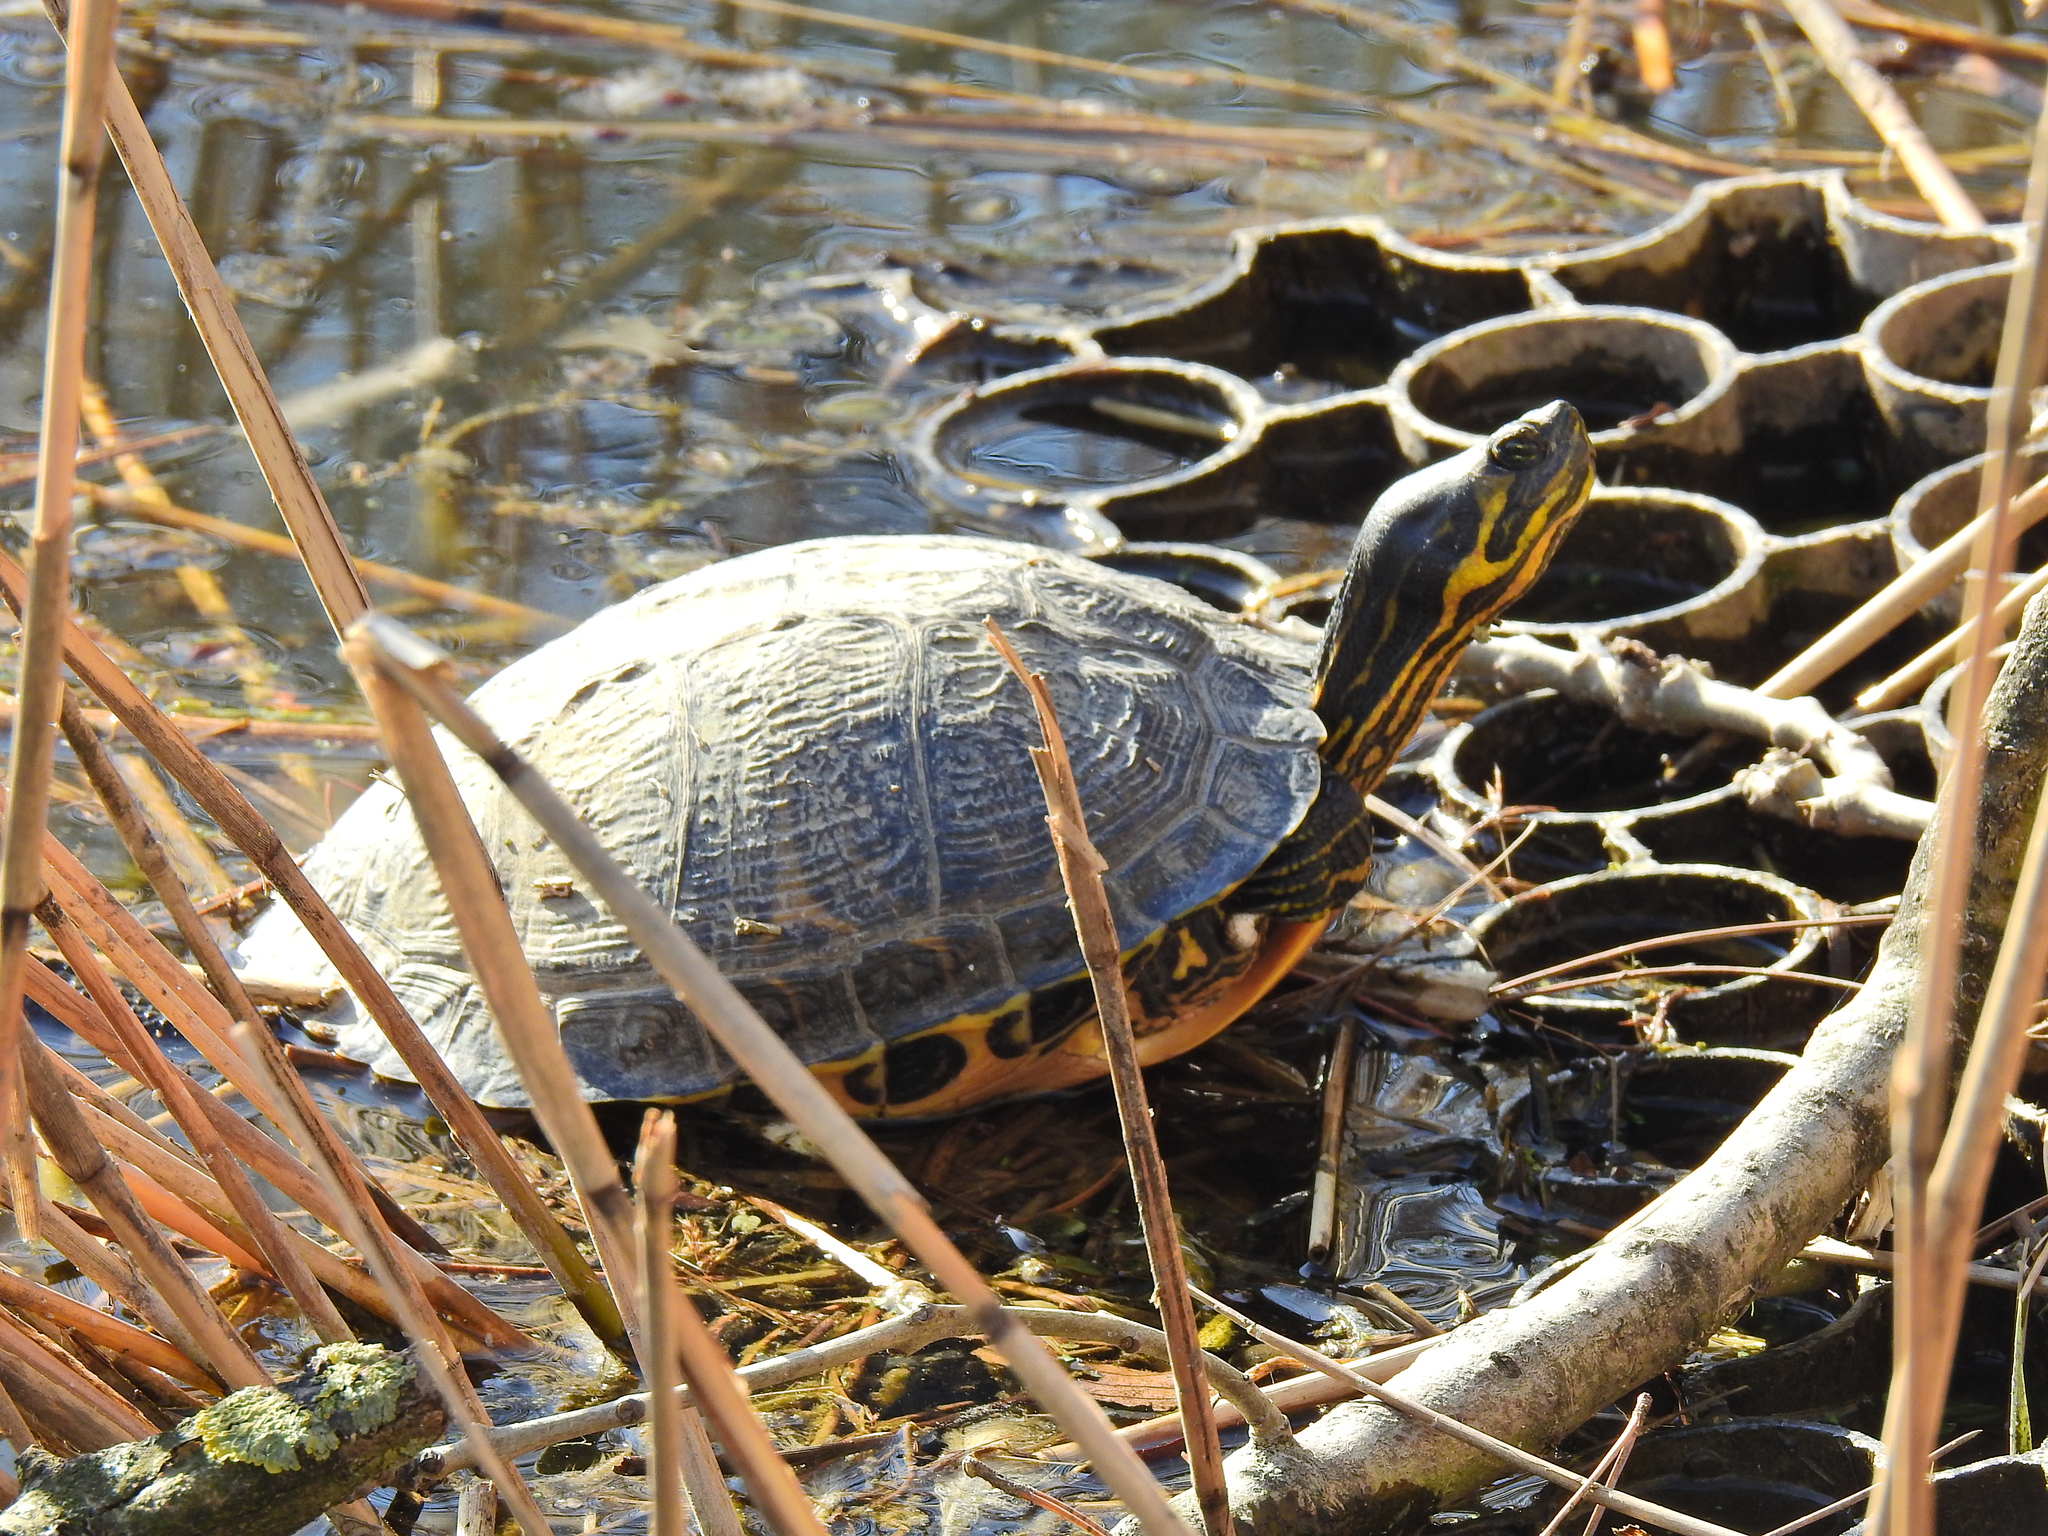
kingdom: Animalia
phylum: Chordata
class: Testudines
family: Emydidae
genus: Trachemys
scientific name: Trachemys scripta
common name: Slider
